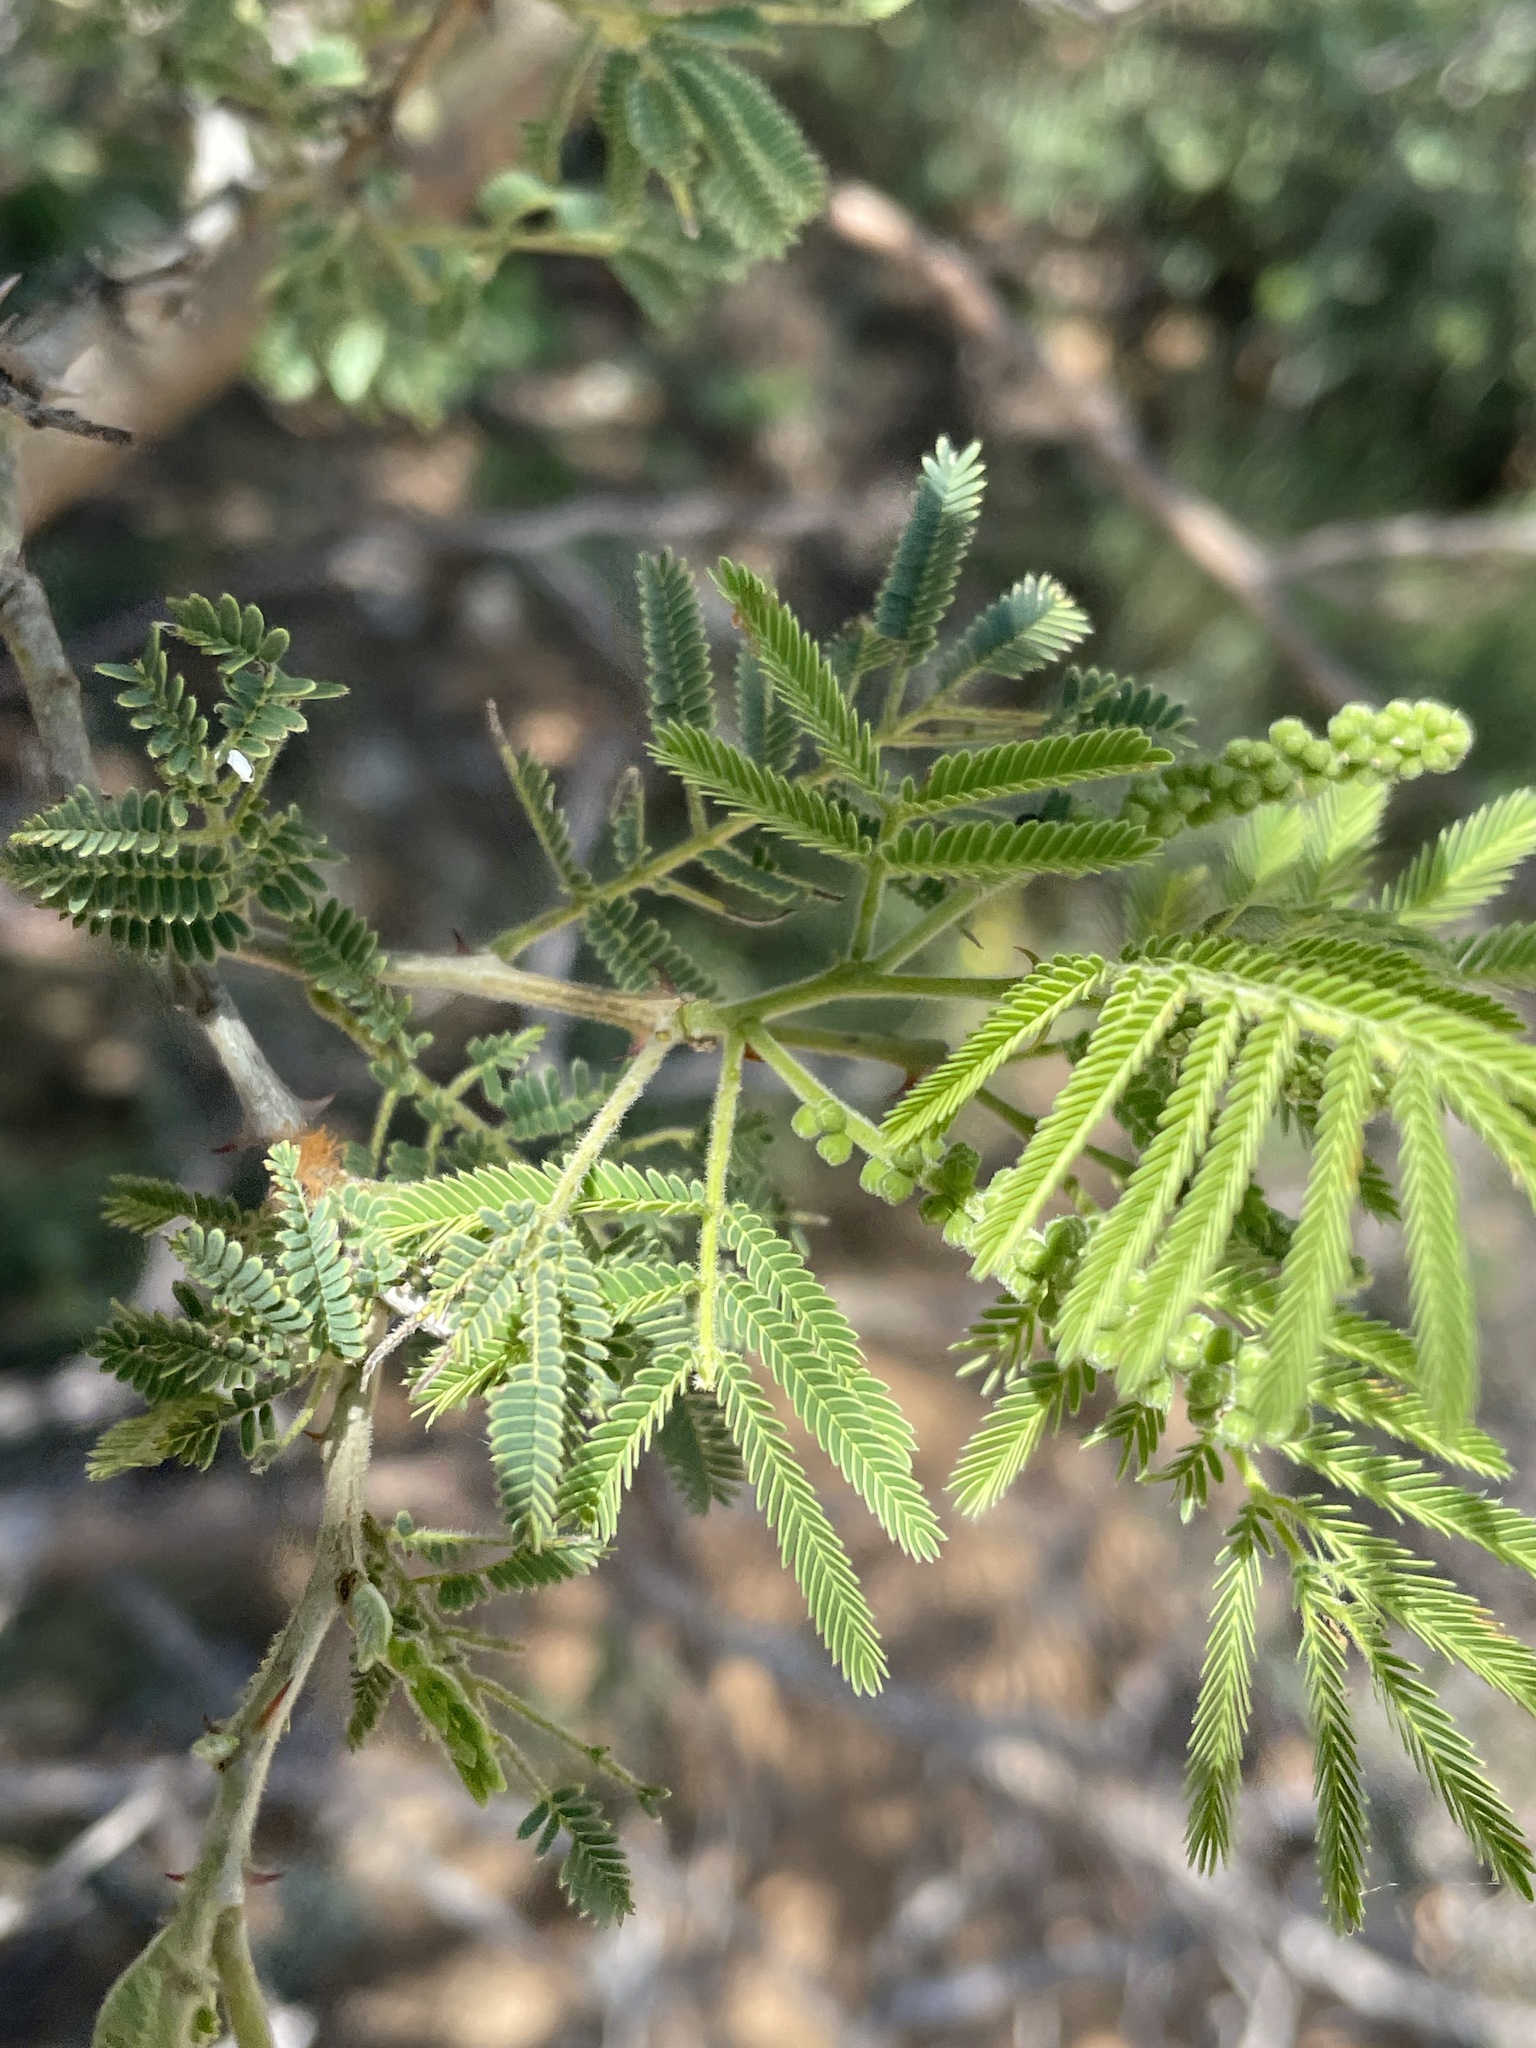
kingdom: Plantae
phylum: Tracheophyta
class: Magnoliopsida
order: Fabales
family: Fabaceae
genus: Senegalia
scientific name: Senegalia fleckii
